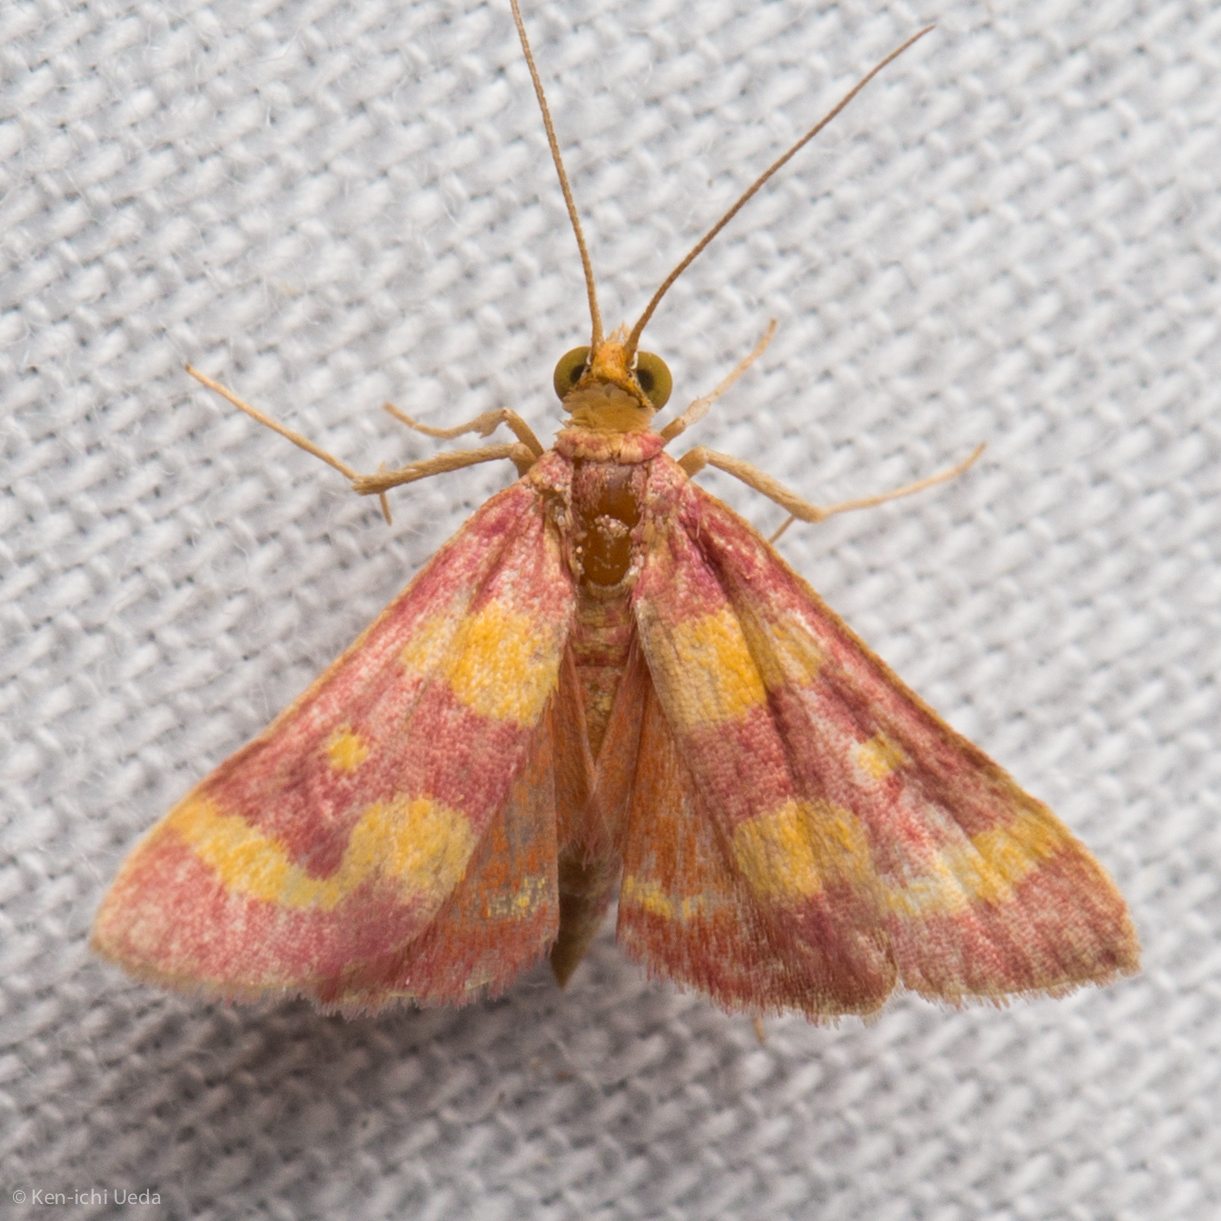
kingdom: Animalia
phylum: Arthropoda
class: Insecta
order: Lepidoptera
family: Crambidae
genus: Pyrausta
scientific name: Pyrausta tyralis
